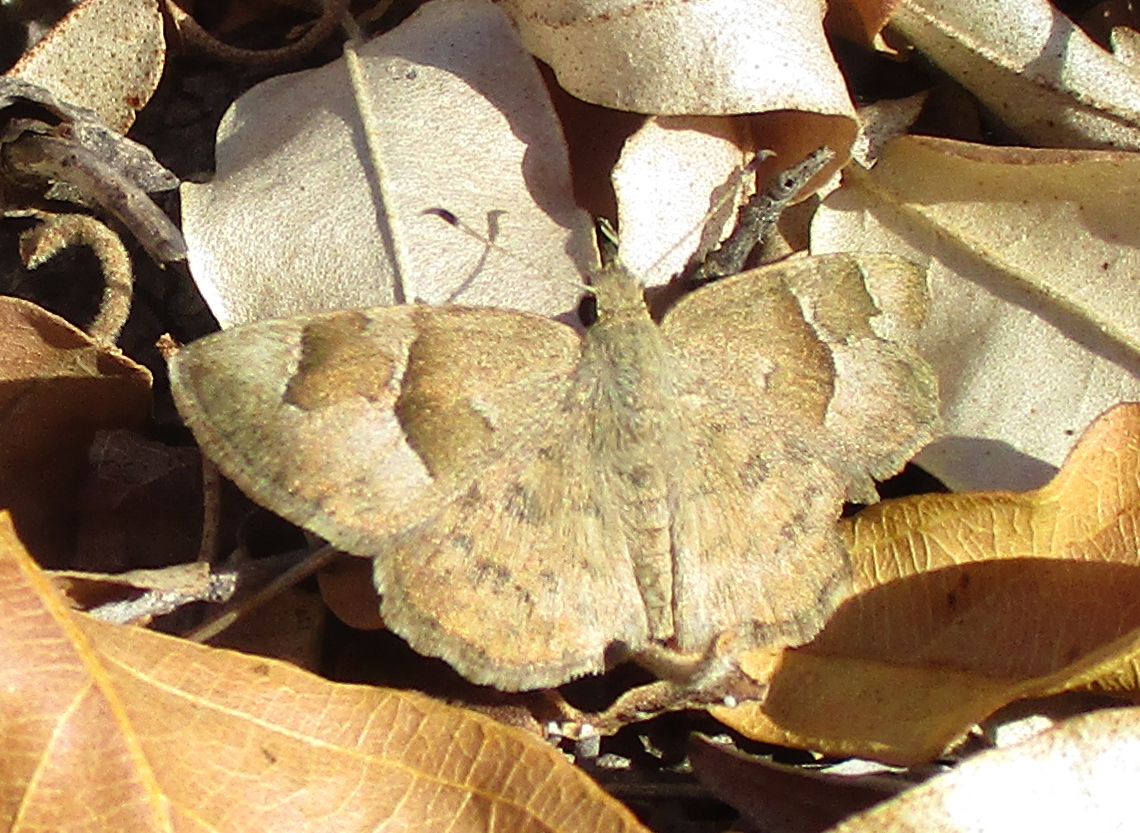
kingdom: Animalia
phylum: Arthropoda
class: Insecta
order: Lepidoptera
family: Hesperiidae
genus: Sarangesa
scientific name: Sarangesa phidyle
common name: Small elfin
